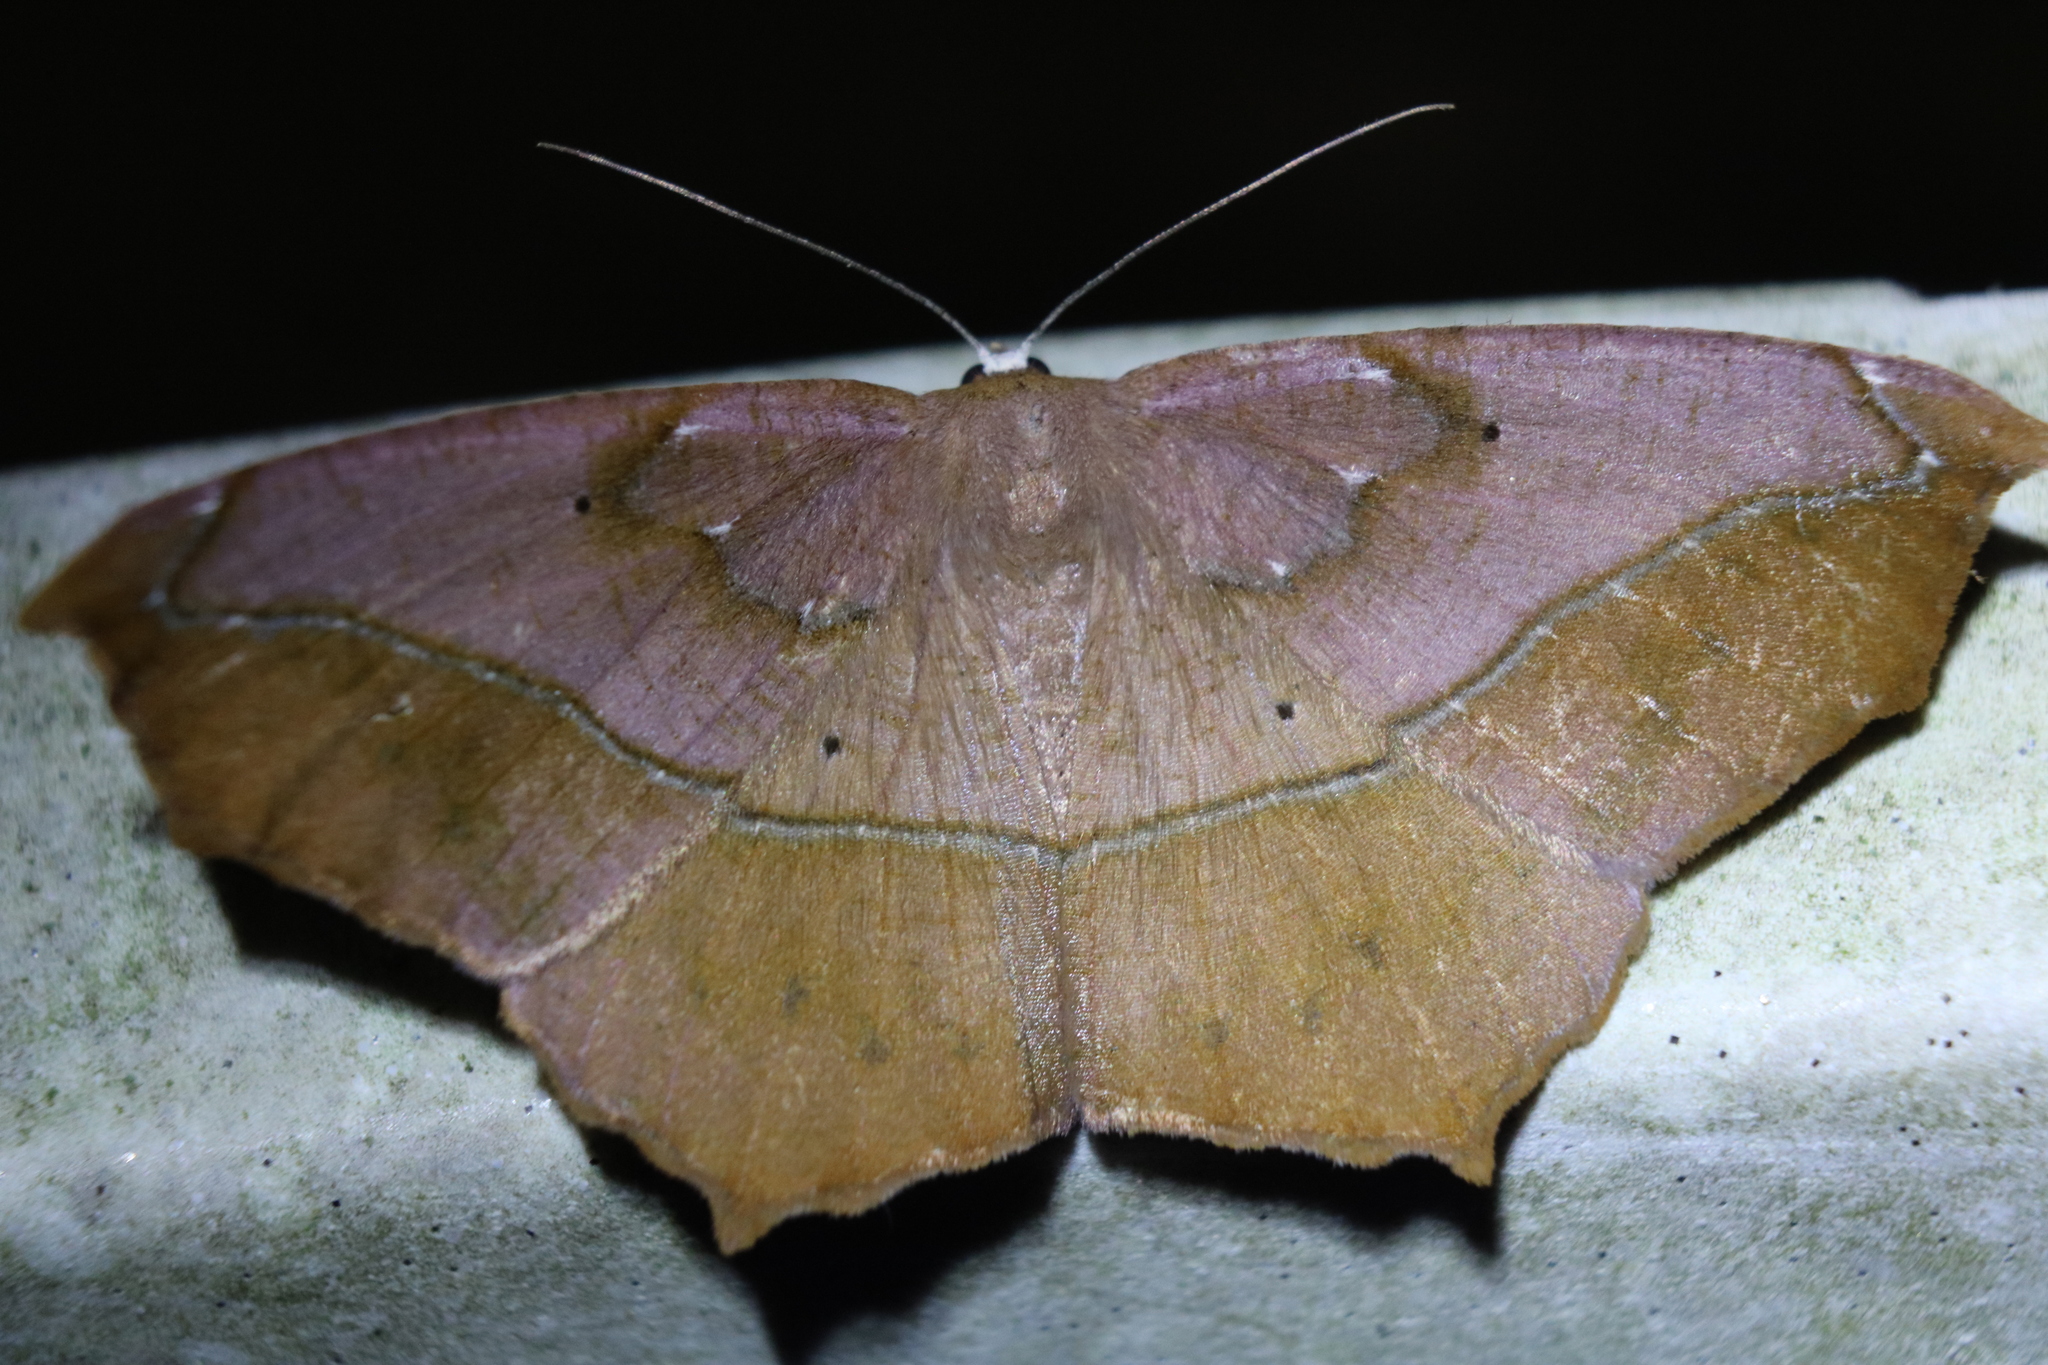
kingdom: Animalia
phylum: Arthropoda
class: Insecta
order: Lepidoptera
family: Geometridae
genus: Prochoerodes
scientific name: Prochoerodes lineola
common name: Large maple spanworm
